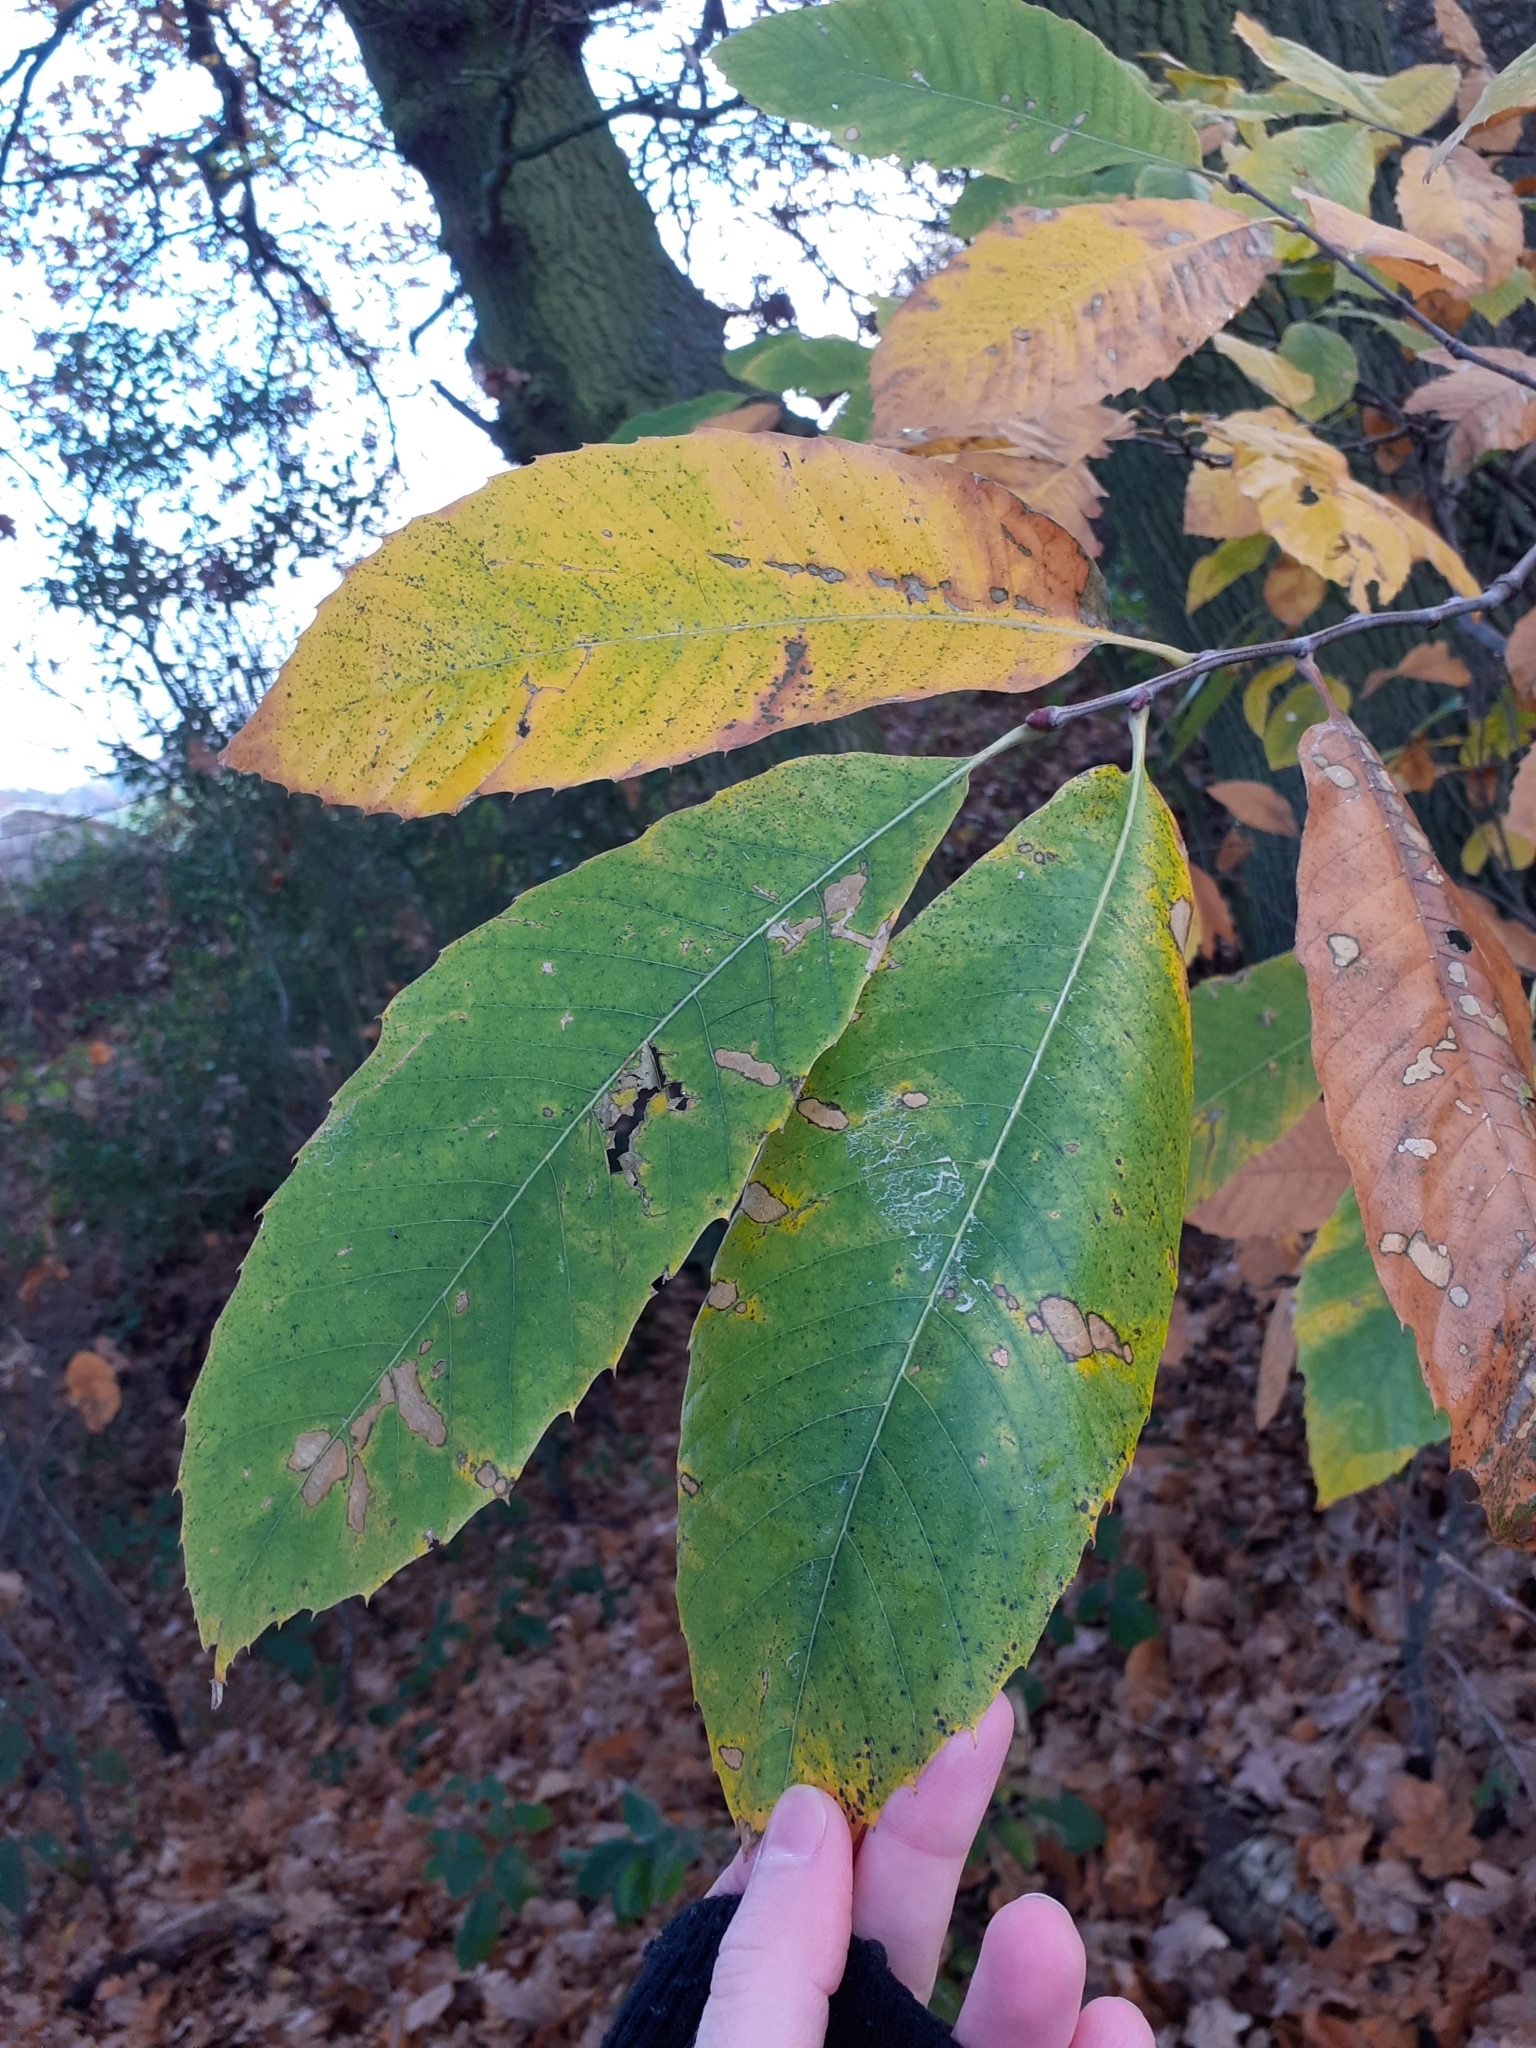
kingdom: Plantae
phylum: Tracheophyta
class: Magnoliopsida
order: Fagales
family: Fagaceae
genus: Castanea
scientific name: Castanea sativa
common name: Sweet chestnut
